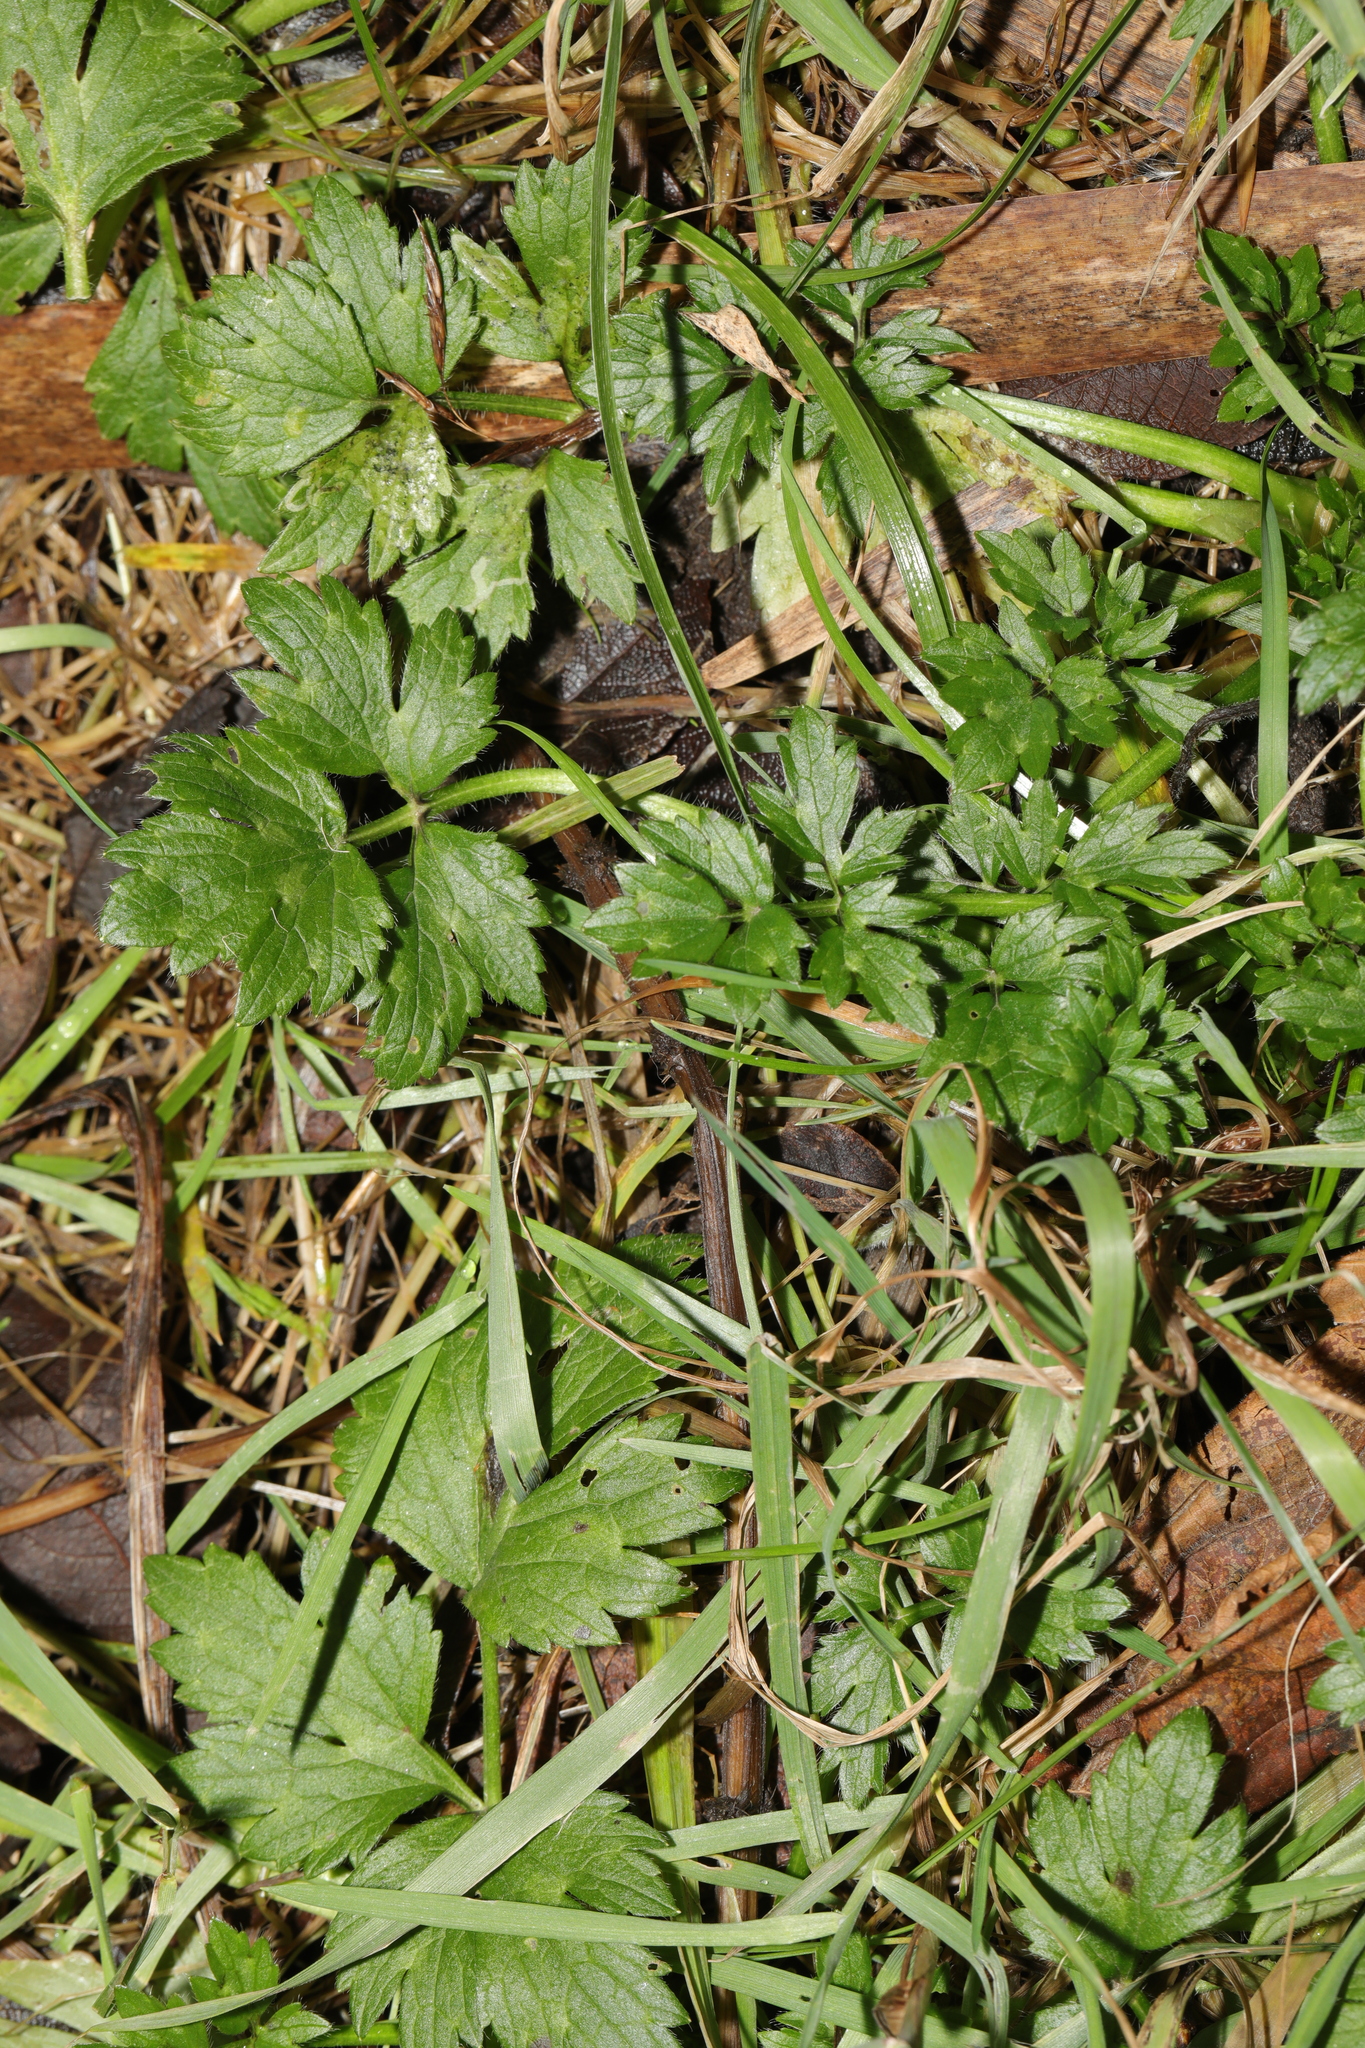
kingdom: Plantae
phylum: Tracheophyta
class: Magnoliopsida
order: Ranunculales
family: Ranunculaceae
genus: Ranunculus
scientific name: Ranunculus repens
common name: Creeping buttercup
